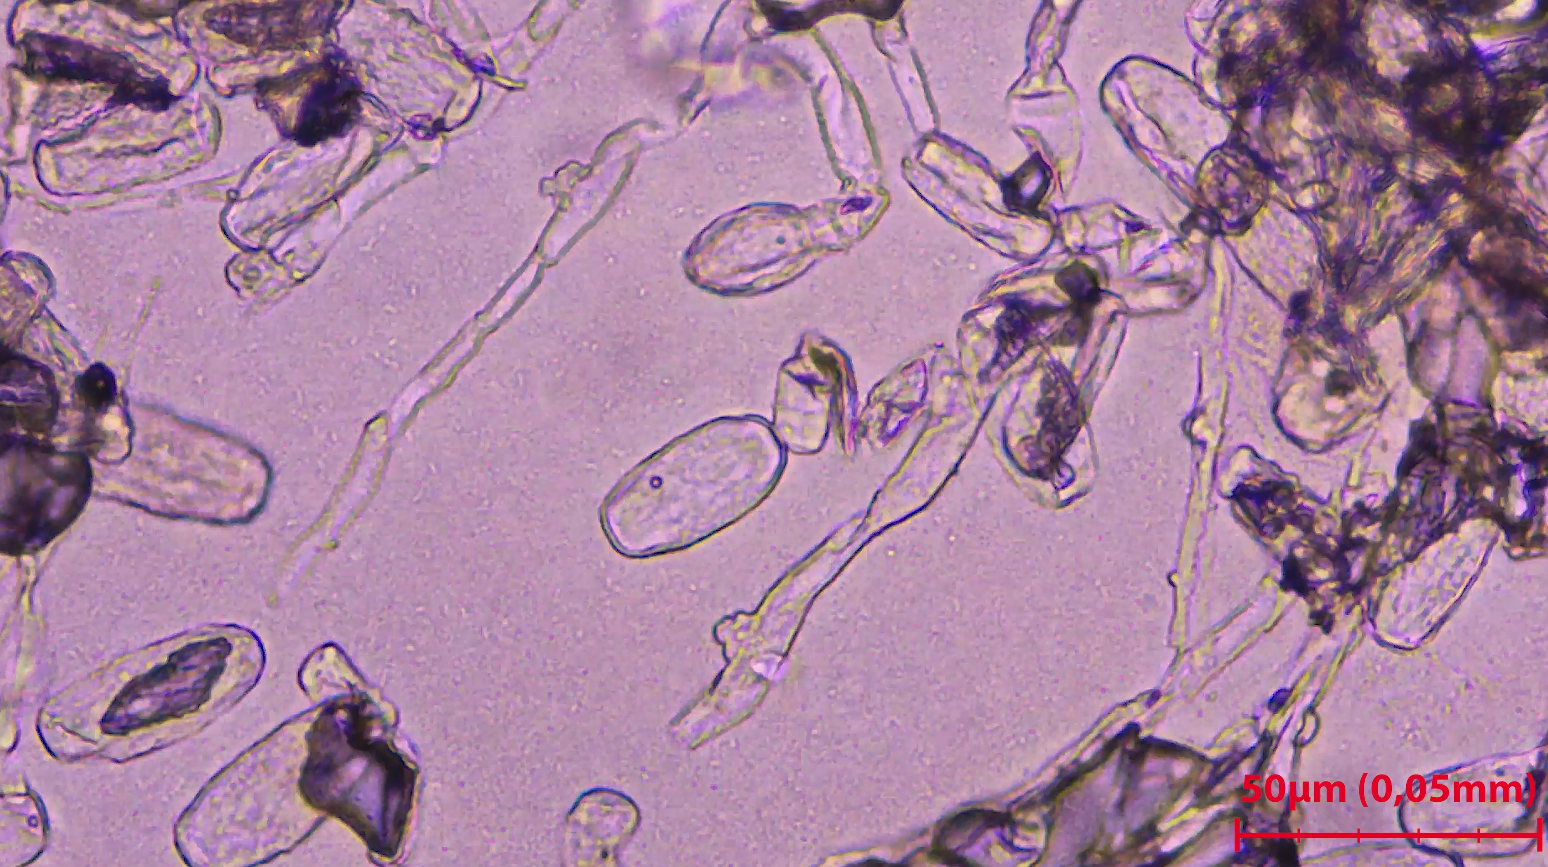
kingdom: Fungi
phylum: Ascomycota
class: Leotiomycetes
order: Helotiales
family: Erysiphaceae
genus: Erysiphe
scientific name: Erysiphe polygoni
